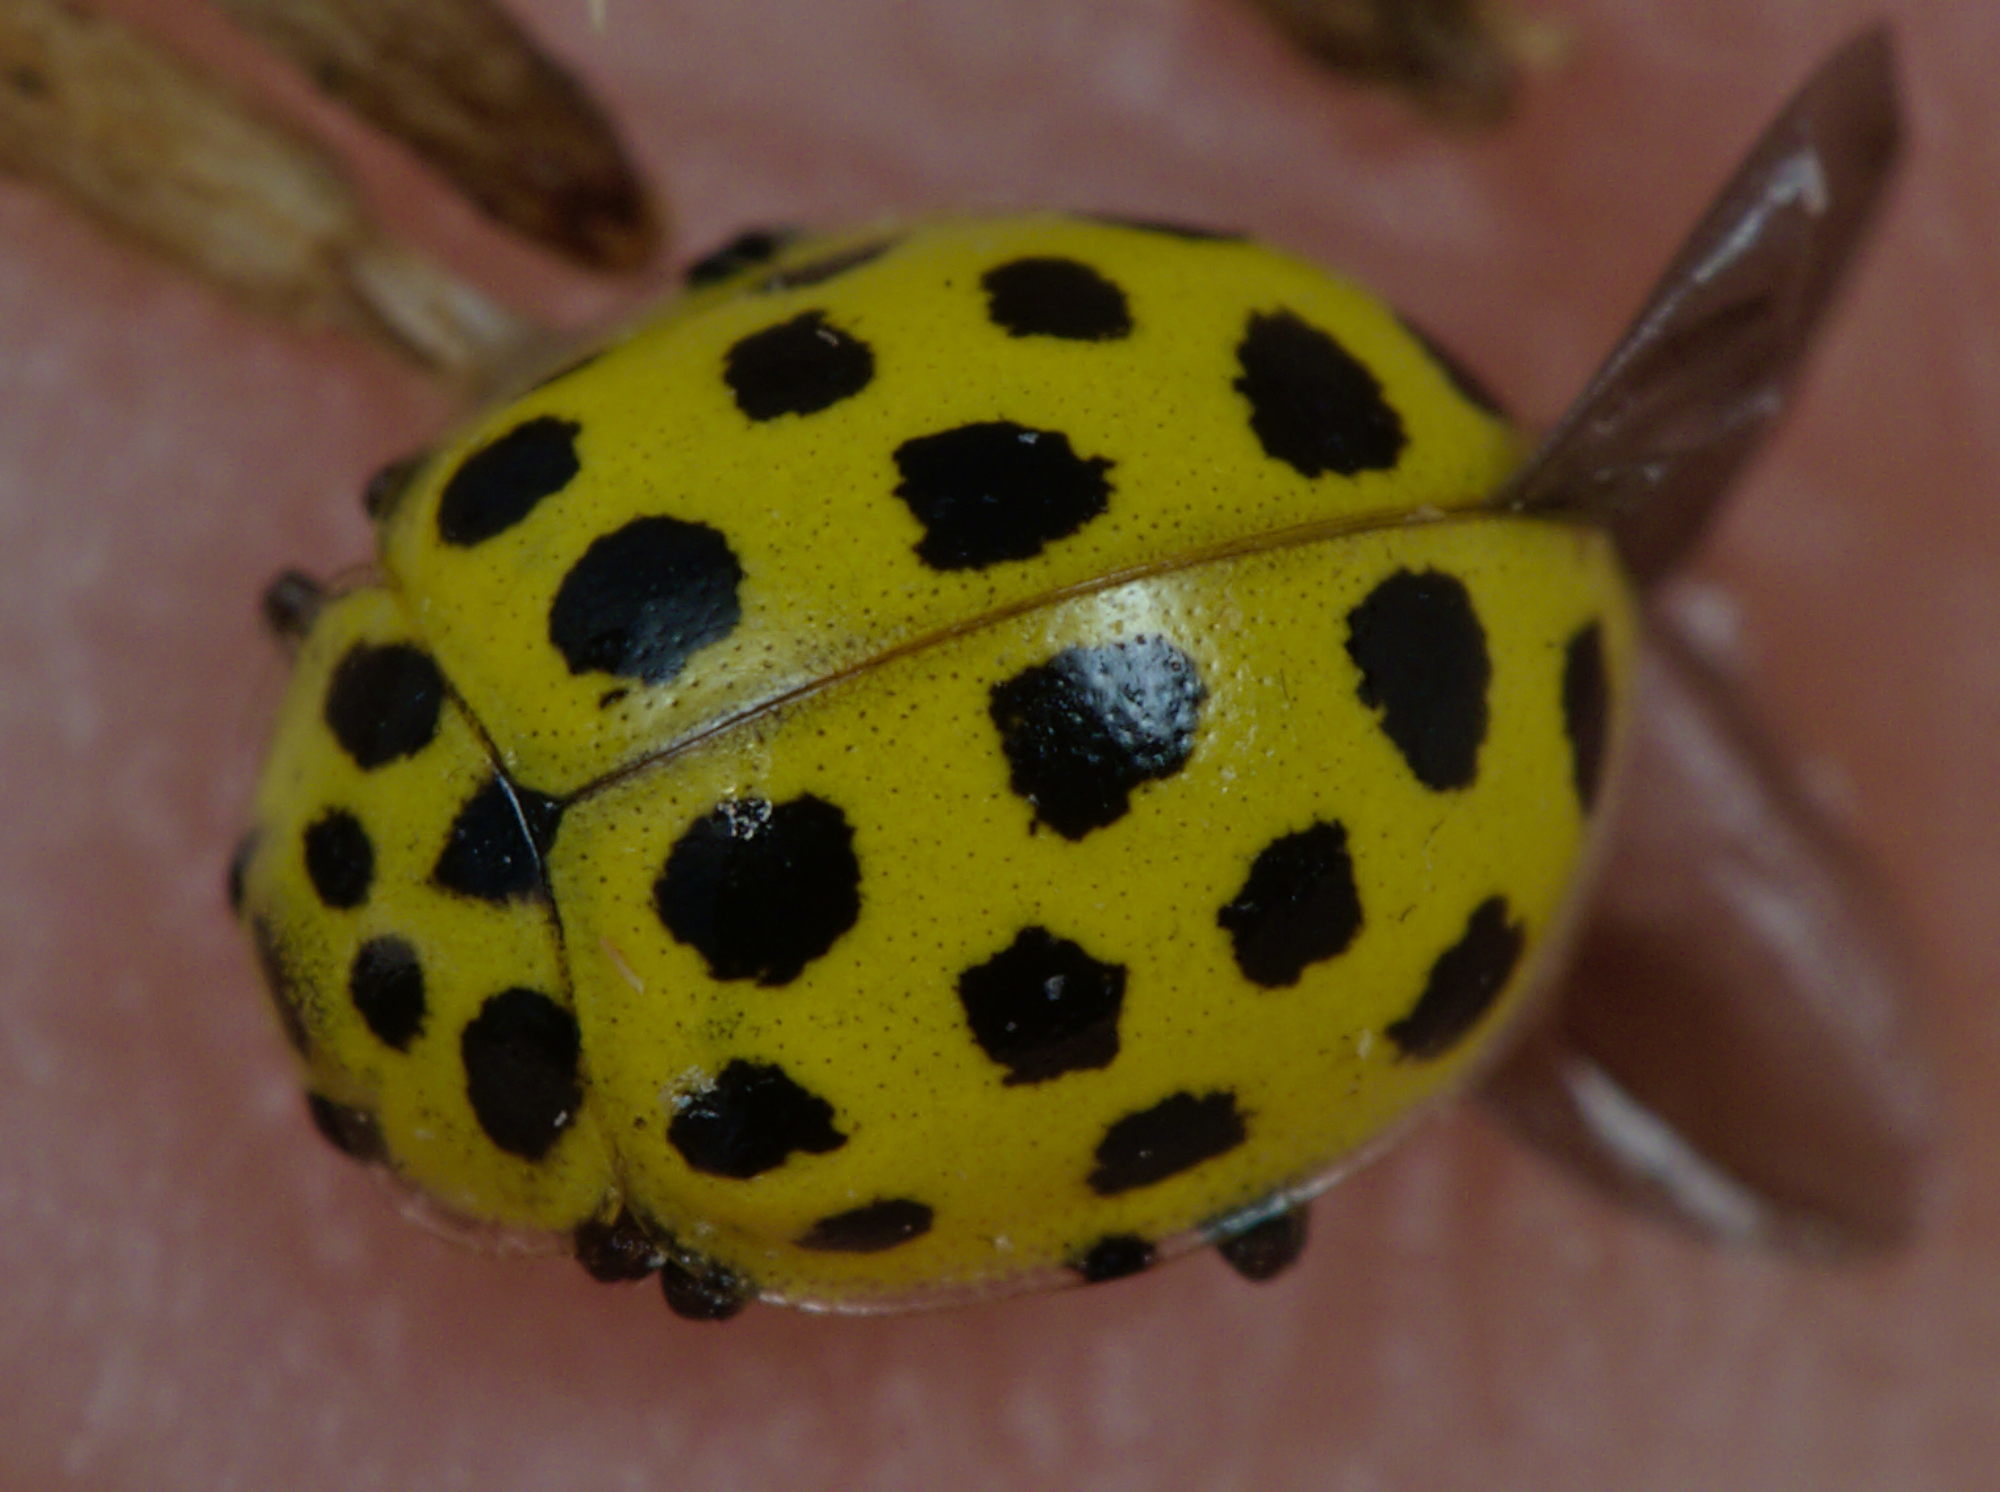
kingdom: Animalia
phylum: Arthropoda
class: Insecta
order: Coleoptera
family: Coccinellidae
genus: Psyllobora
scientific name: Psyllobora vigintiduopunctata
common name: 22-spot ladybird
